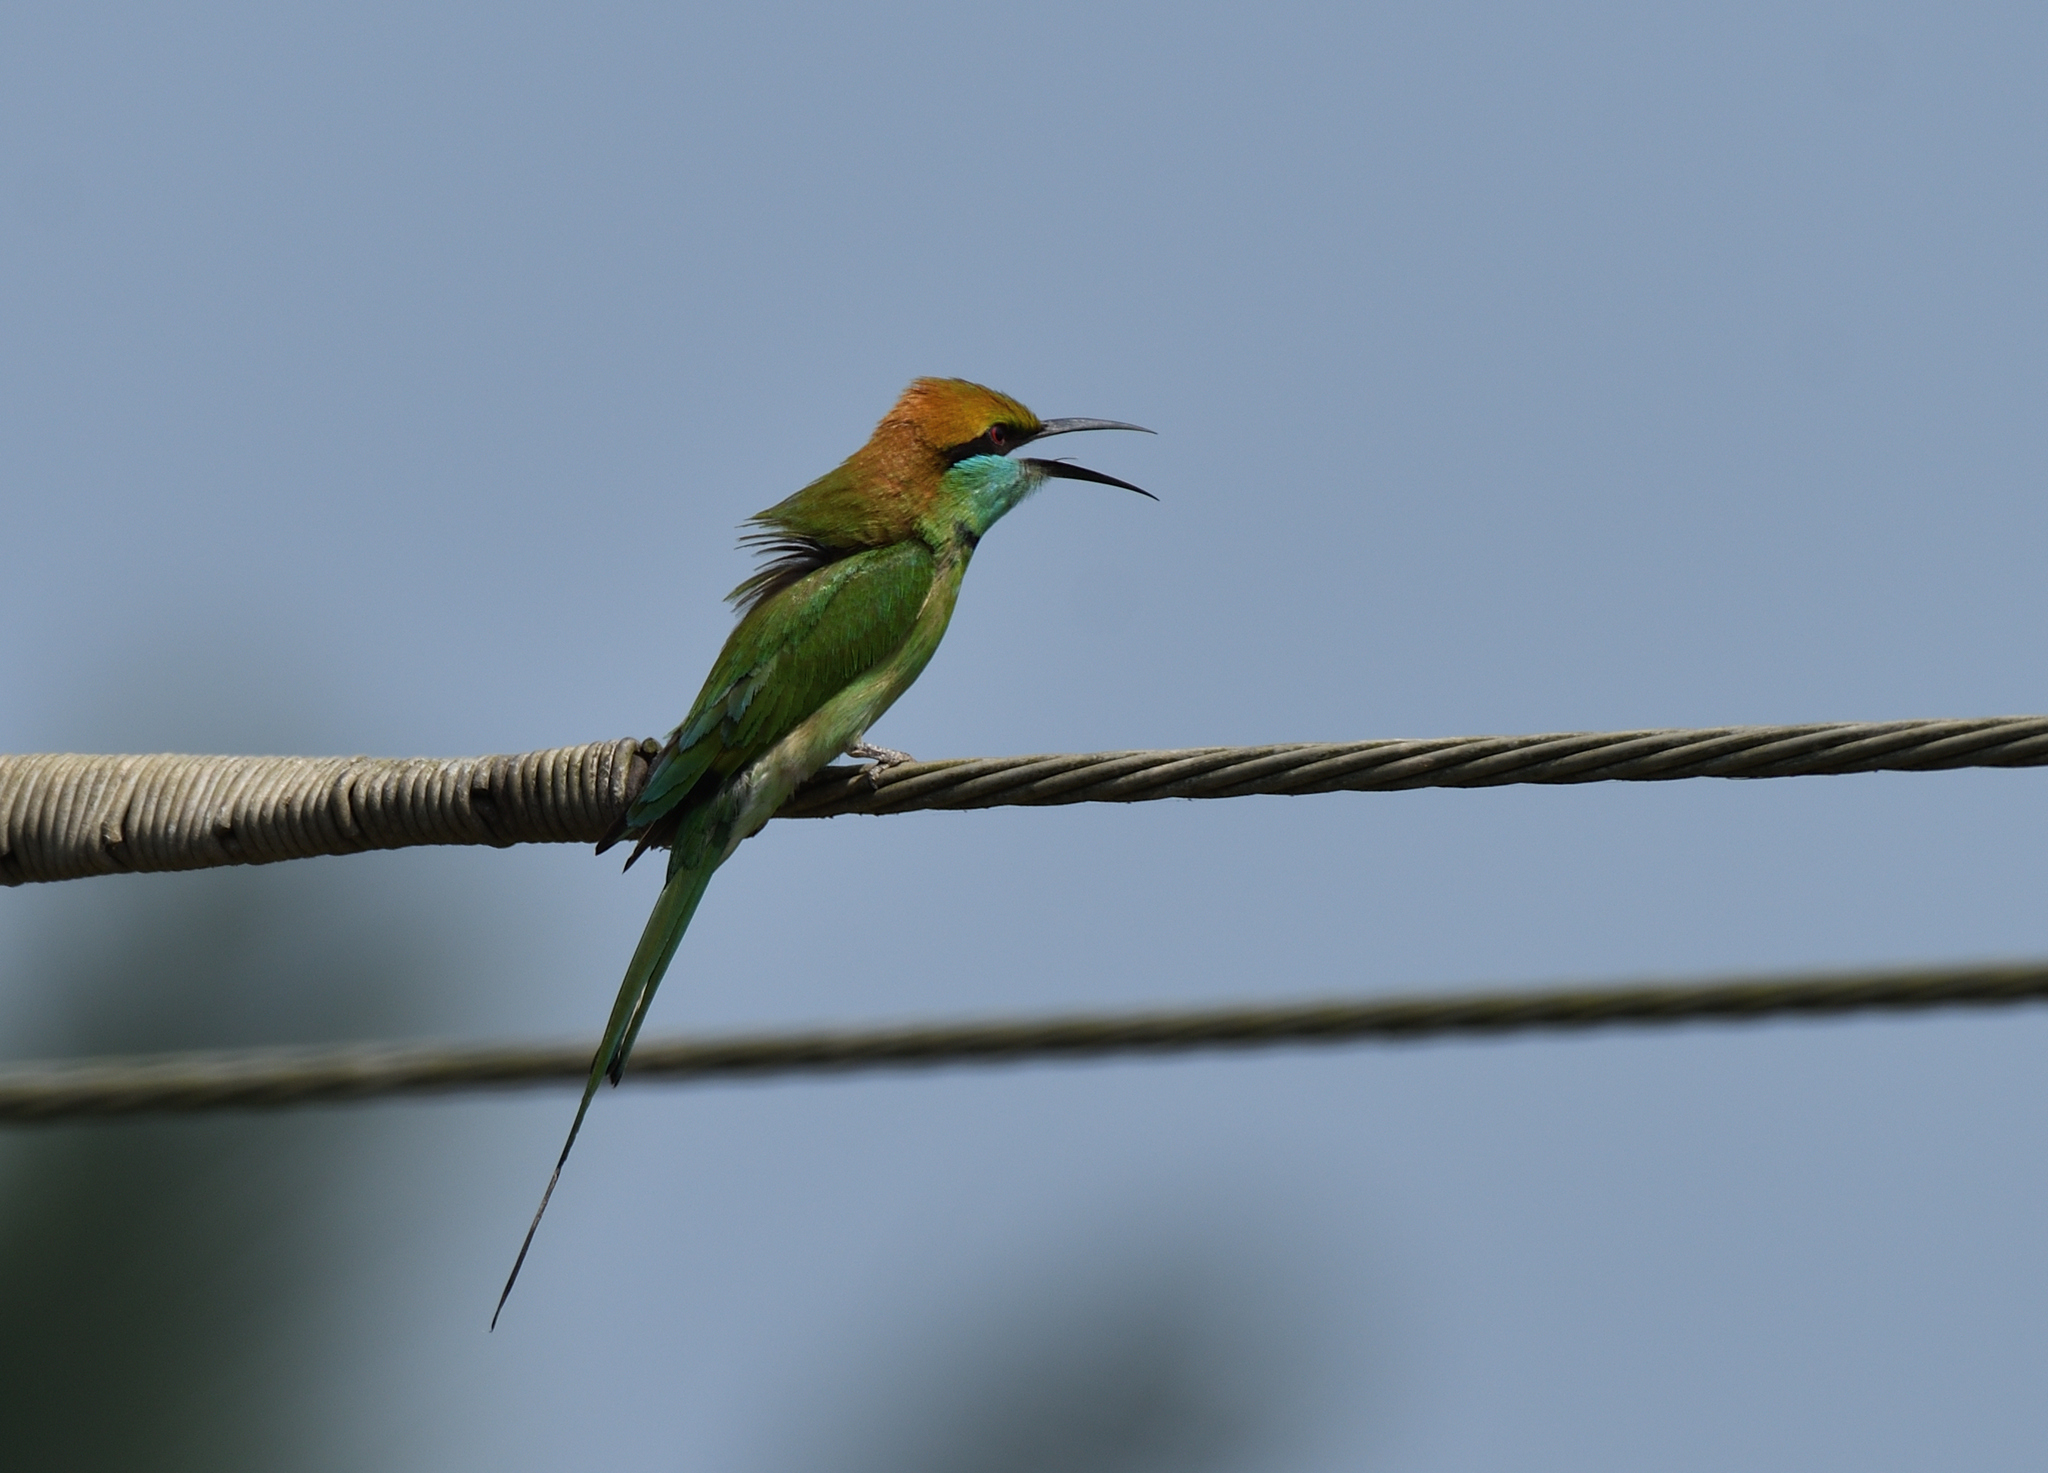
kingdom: Animalia
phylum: Chordata
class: Aves
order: Coraciiformes
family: Meropidae
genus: Merops
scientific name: Merops orientalis
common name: Green bee-eater
